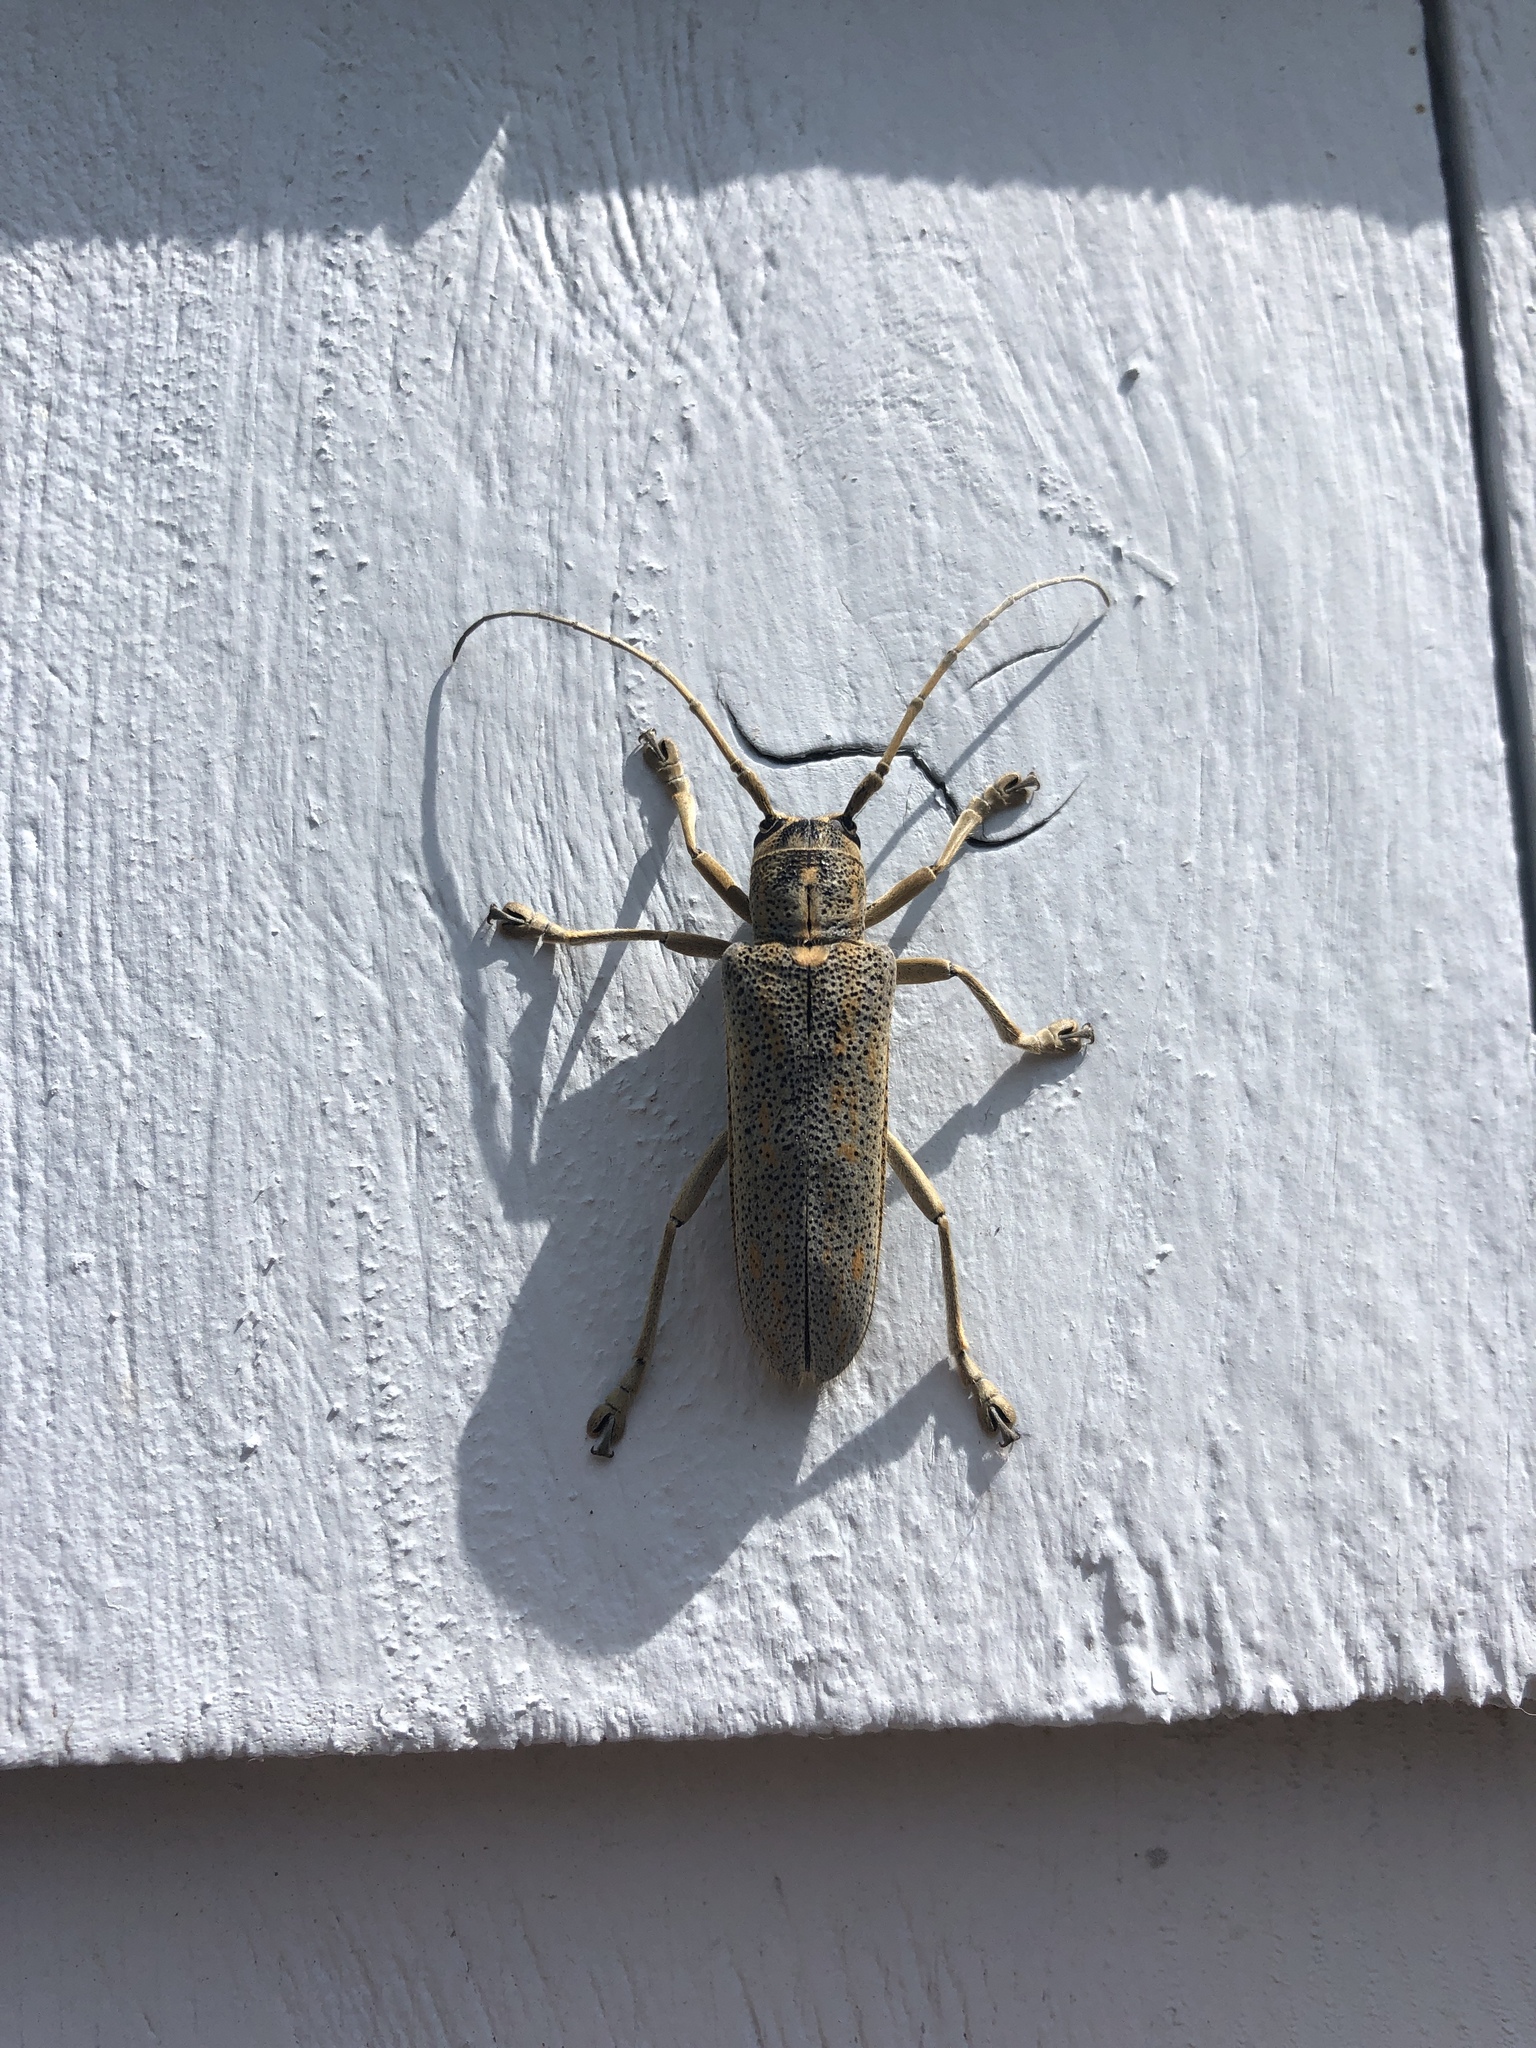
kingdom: Animalia
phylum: Arthropoda
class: Insecta
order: Coleoptera
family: Cerambycidae
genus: Saperda
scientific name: Saperda calcarata
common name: Poplar borer
